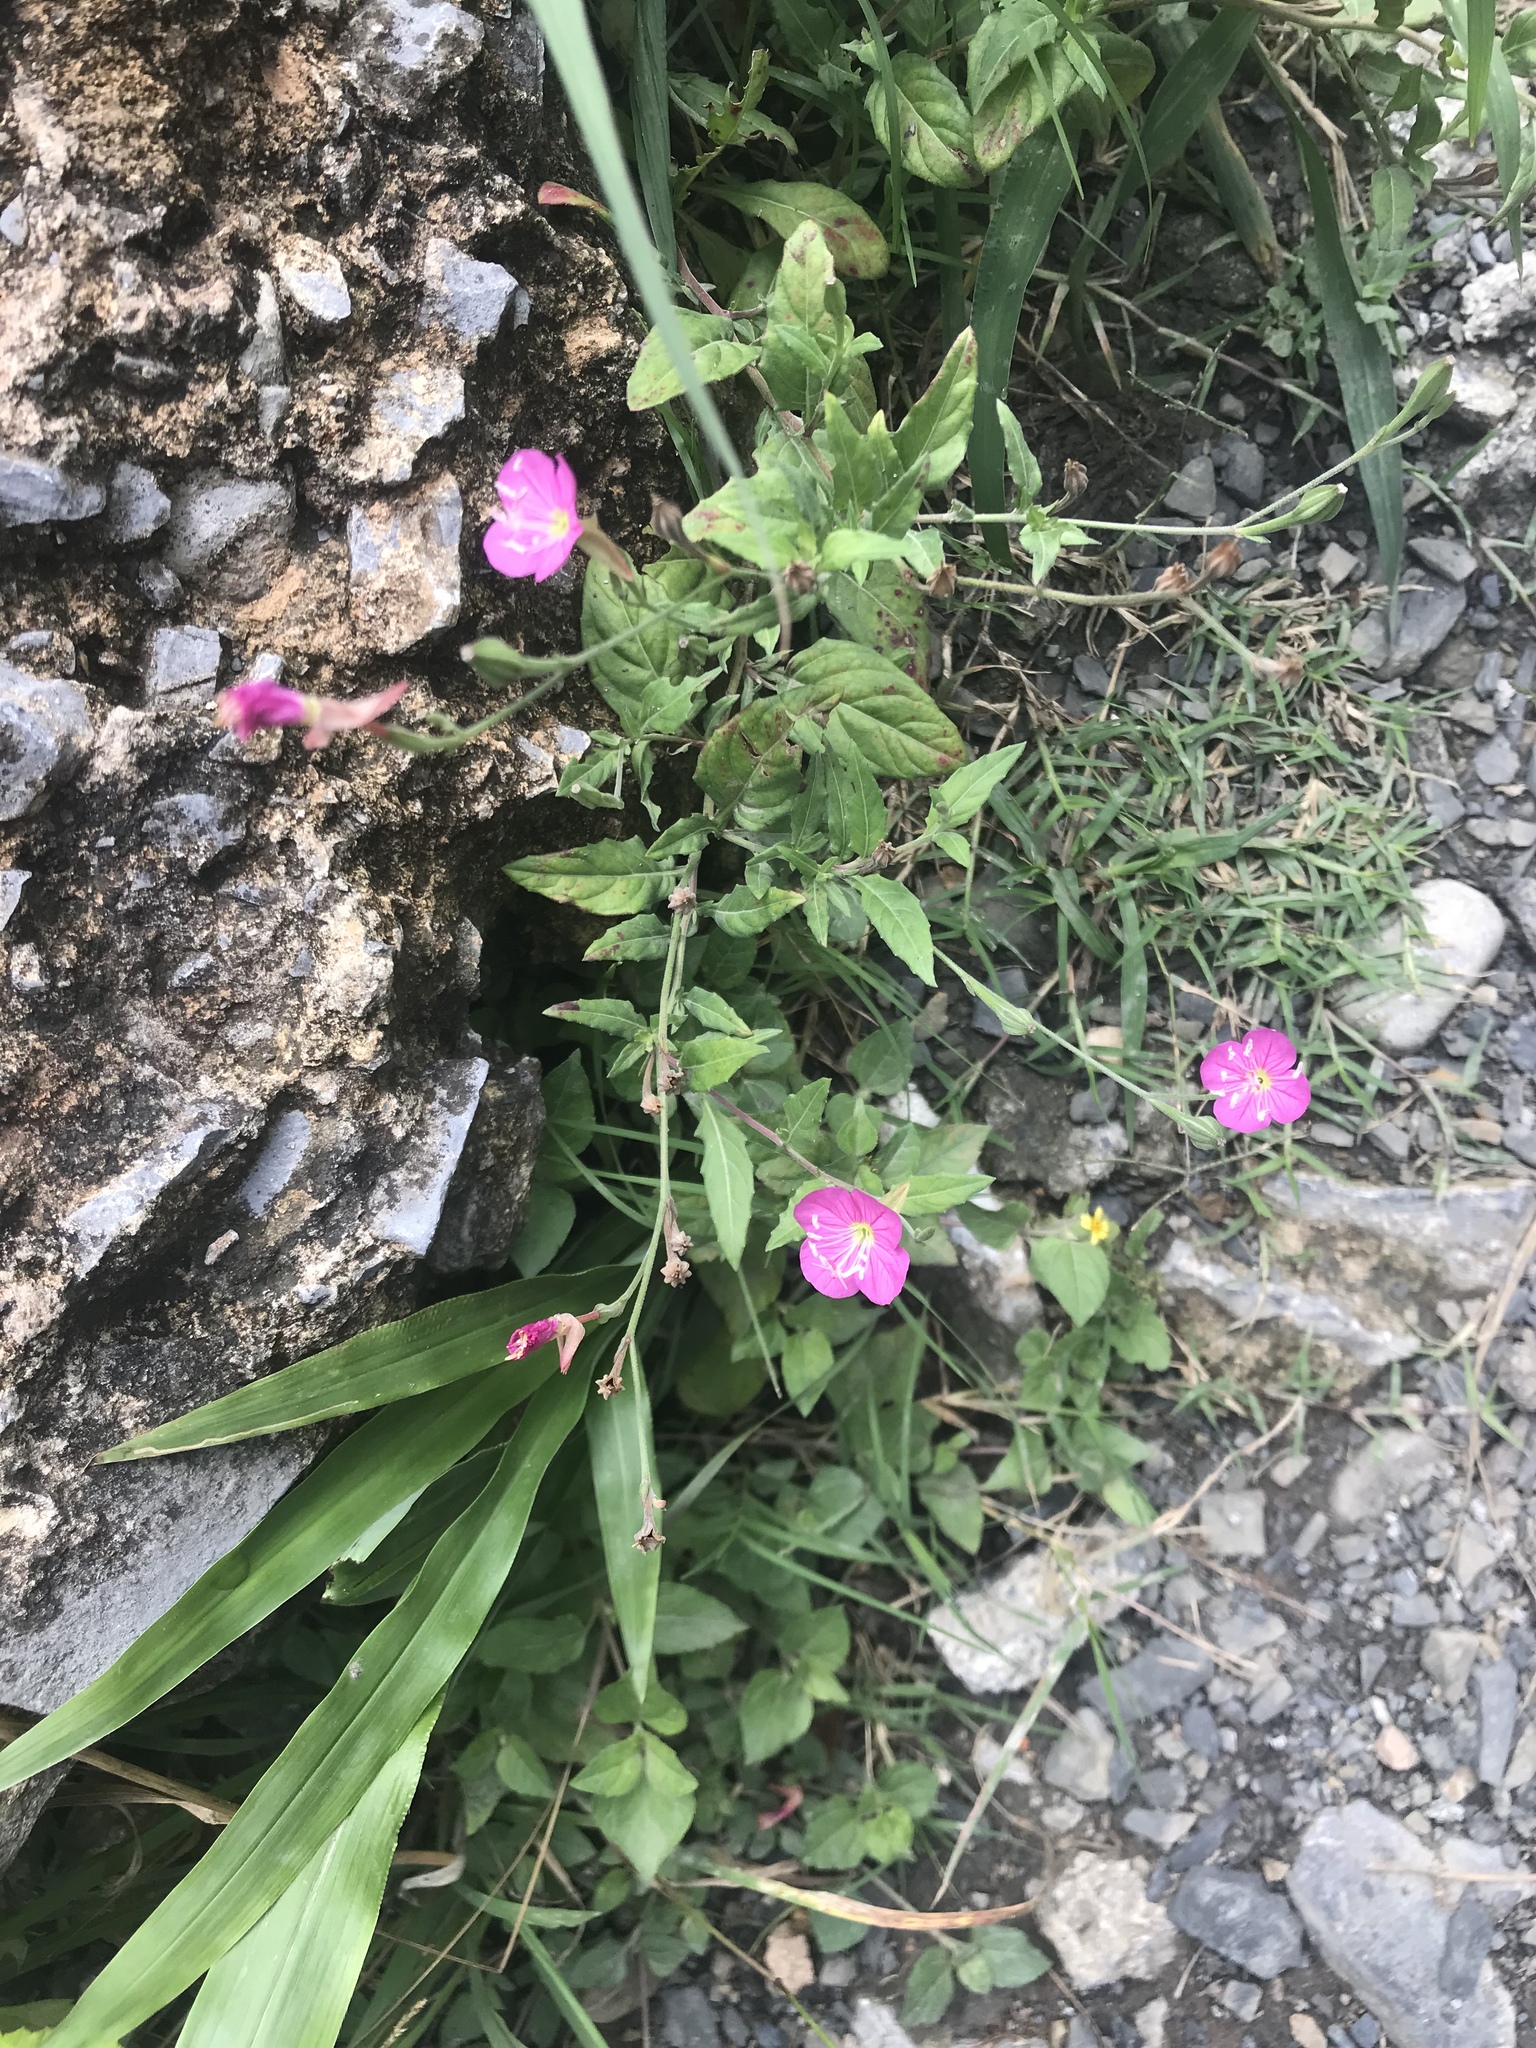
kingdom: Plantae
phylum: Tracheophyta
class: Magnoliopsida
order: Myrtales
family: Onagraceae
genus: Oenothera
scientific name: Oenothera rosea
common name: Rosy evening-primrose
